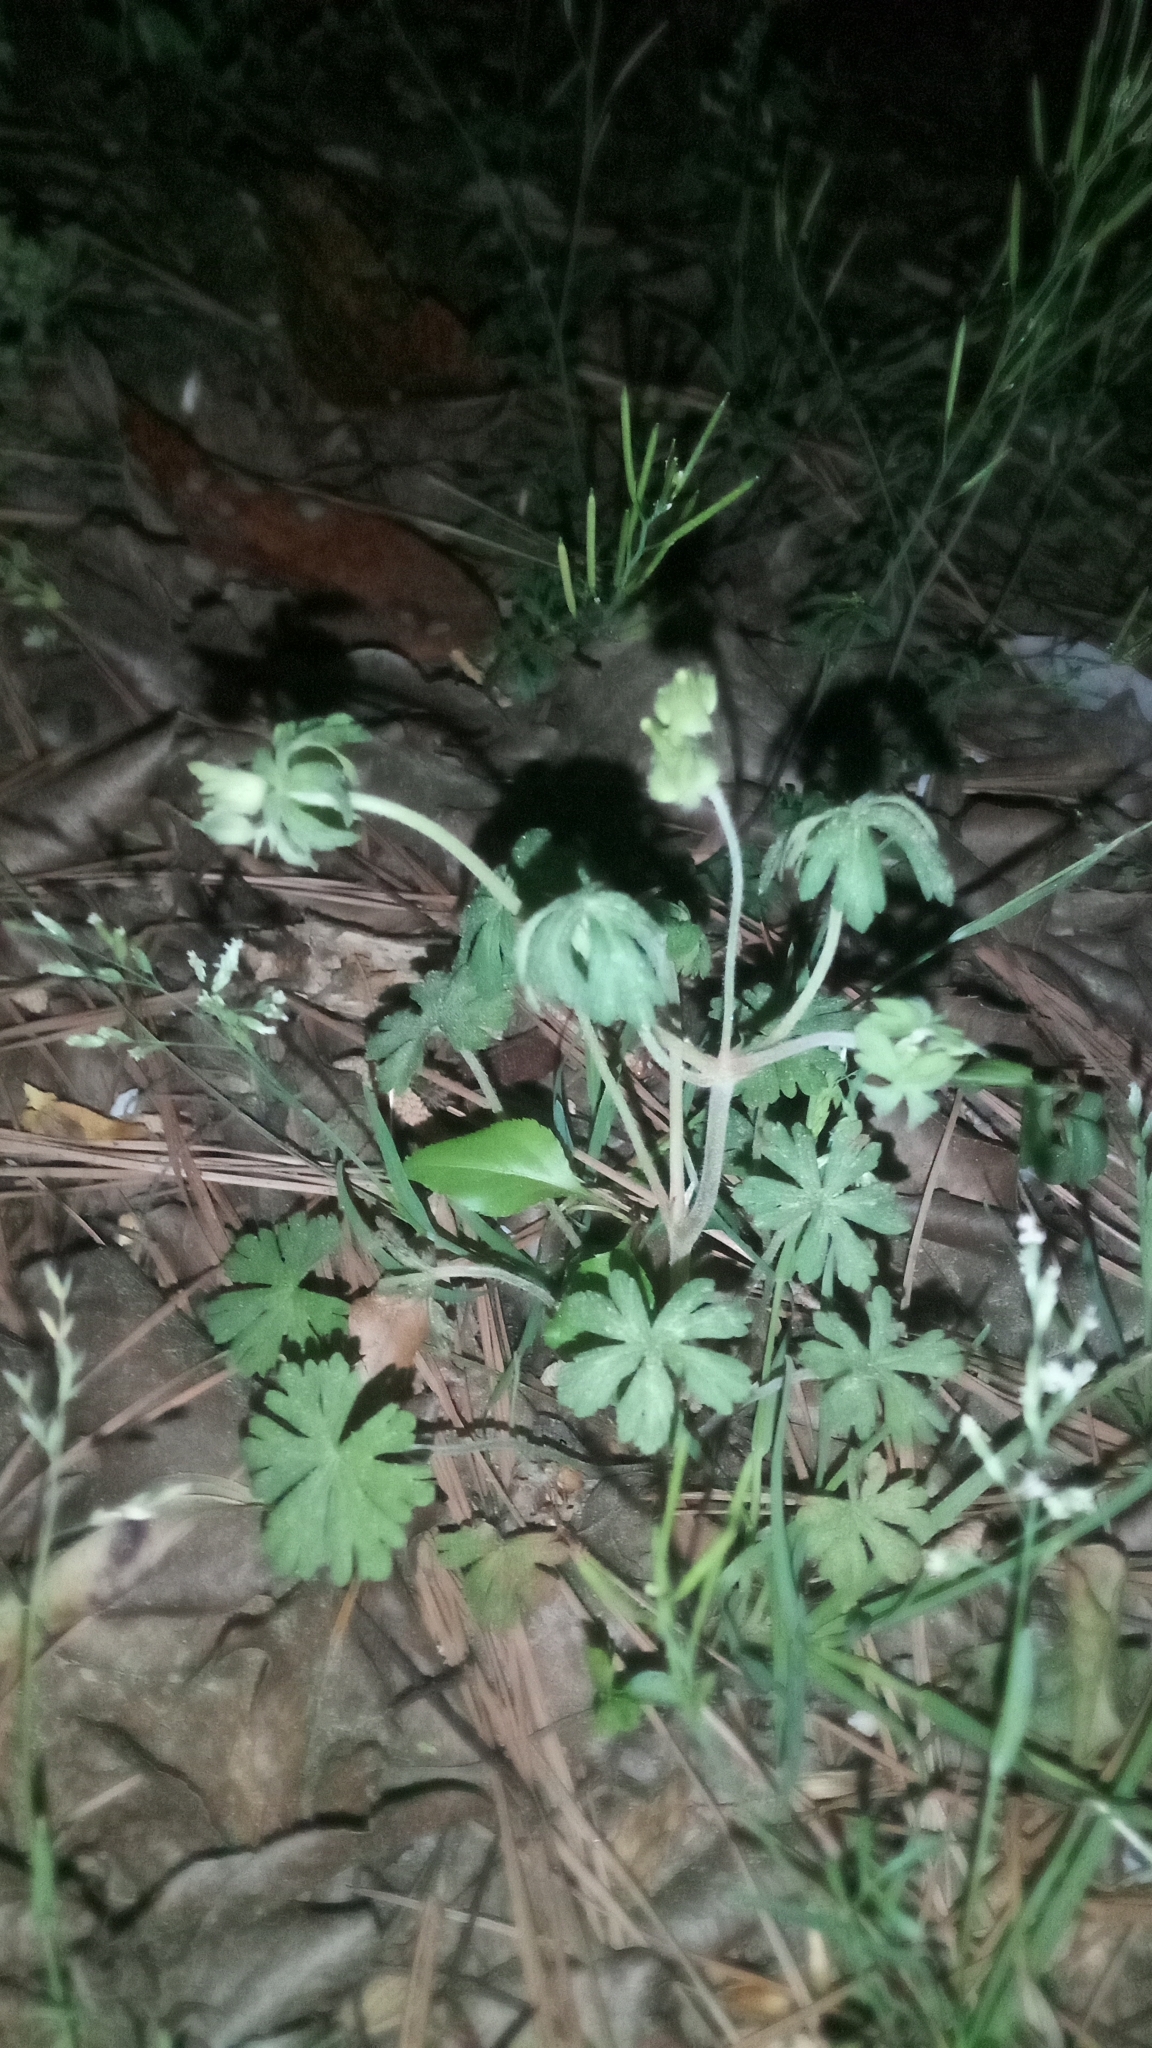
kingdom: Plantae
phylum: Tracheophyta
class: Magnoliopsida
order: Geraniales
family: Geraniaceae
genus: Geranium
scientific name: Geranium carolinianum
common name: Carolina crane's-bill
